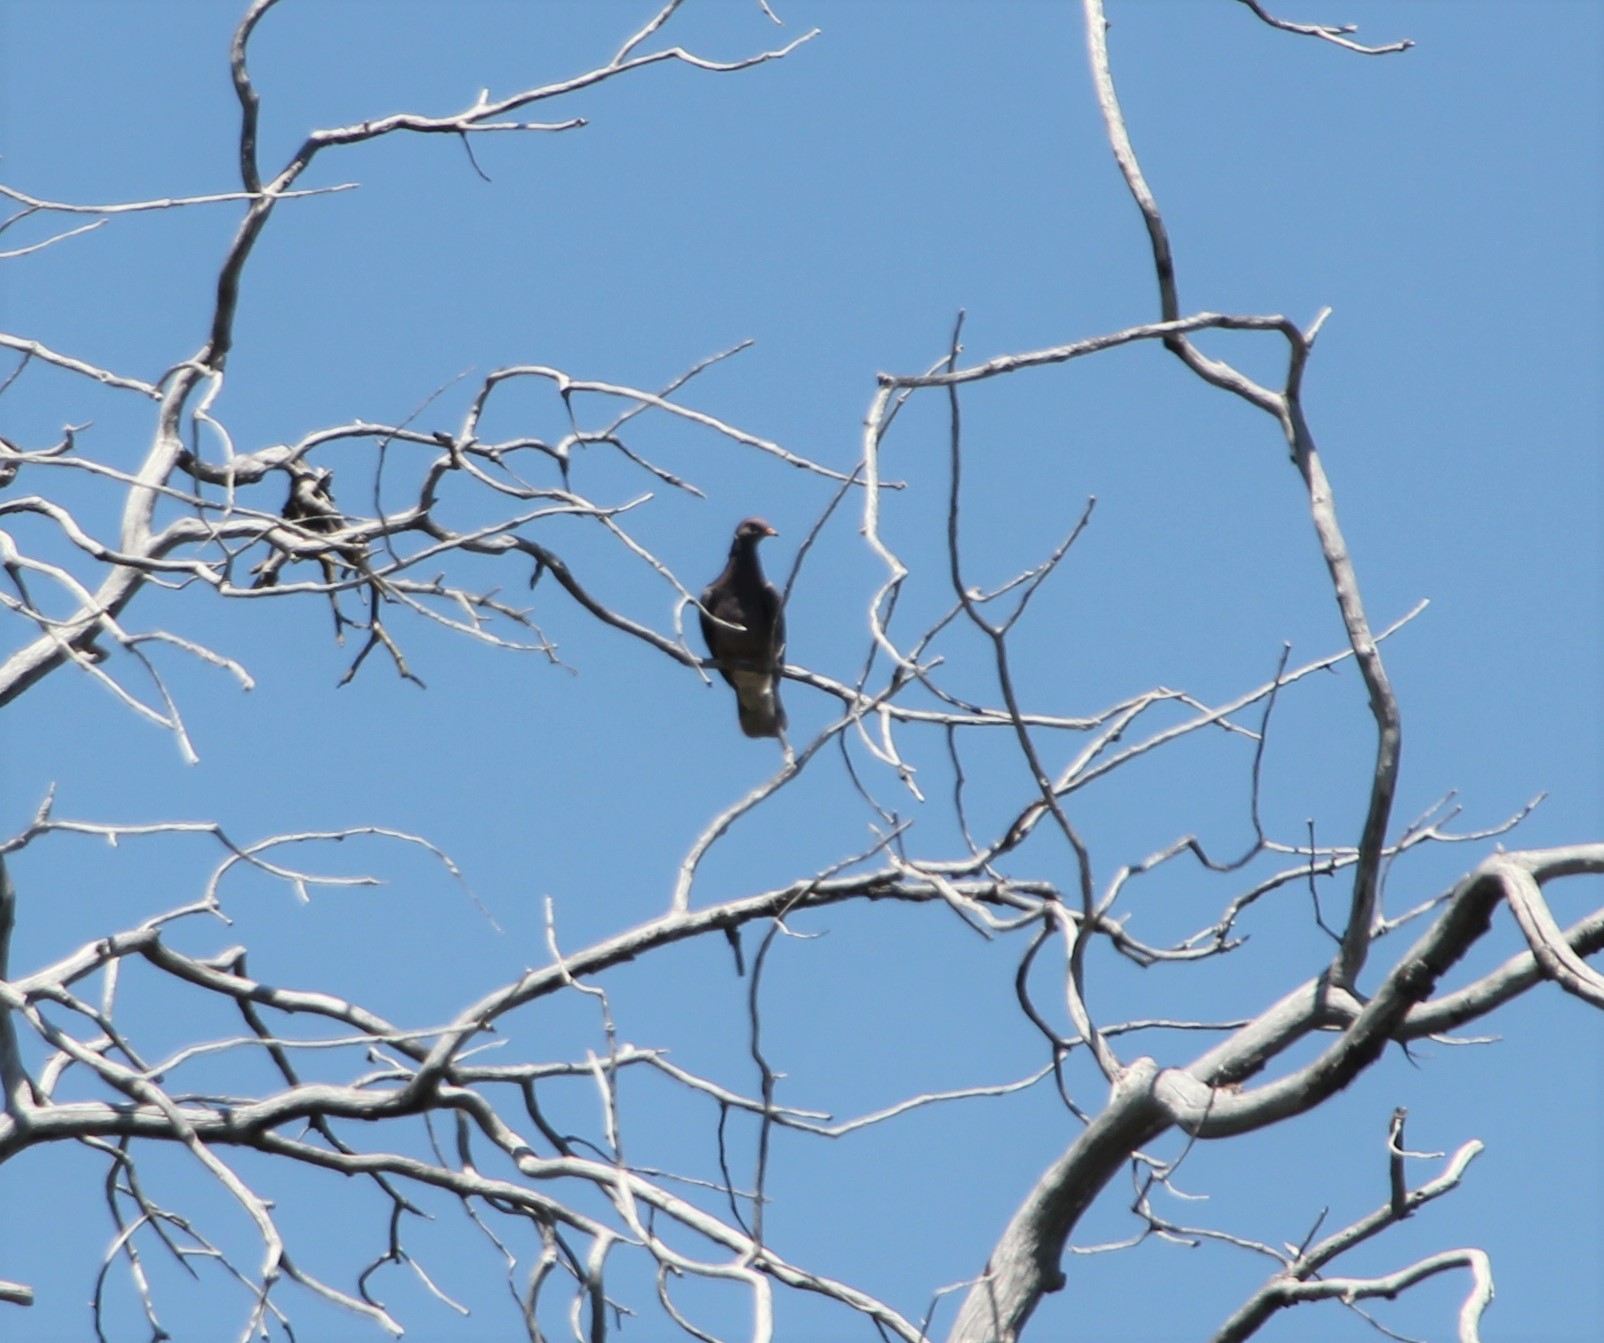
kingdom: Animalia
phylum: Chordata
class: Aves
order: Columbiformes
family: Columbidae
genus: Patagioenas
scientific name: Patagioenas fasciata
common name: Band-tailed pigeon
